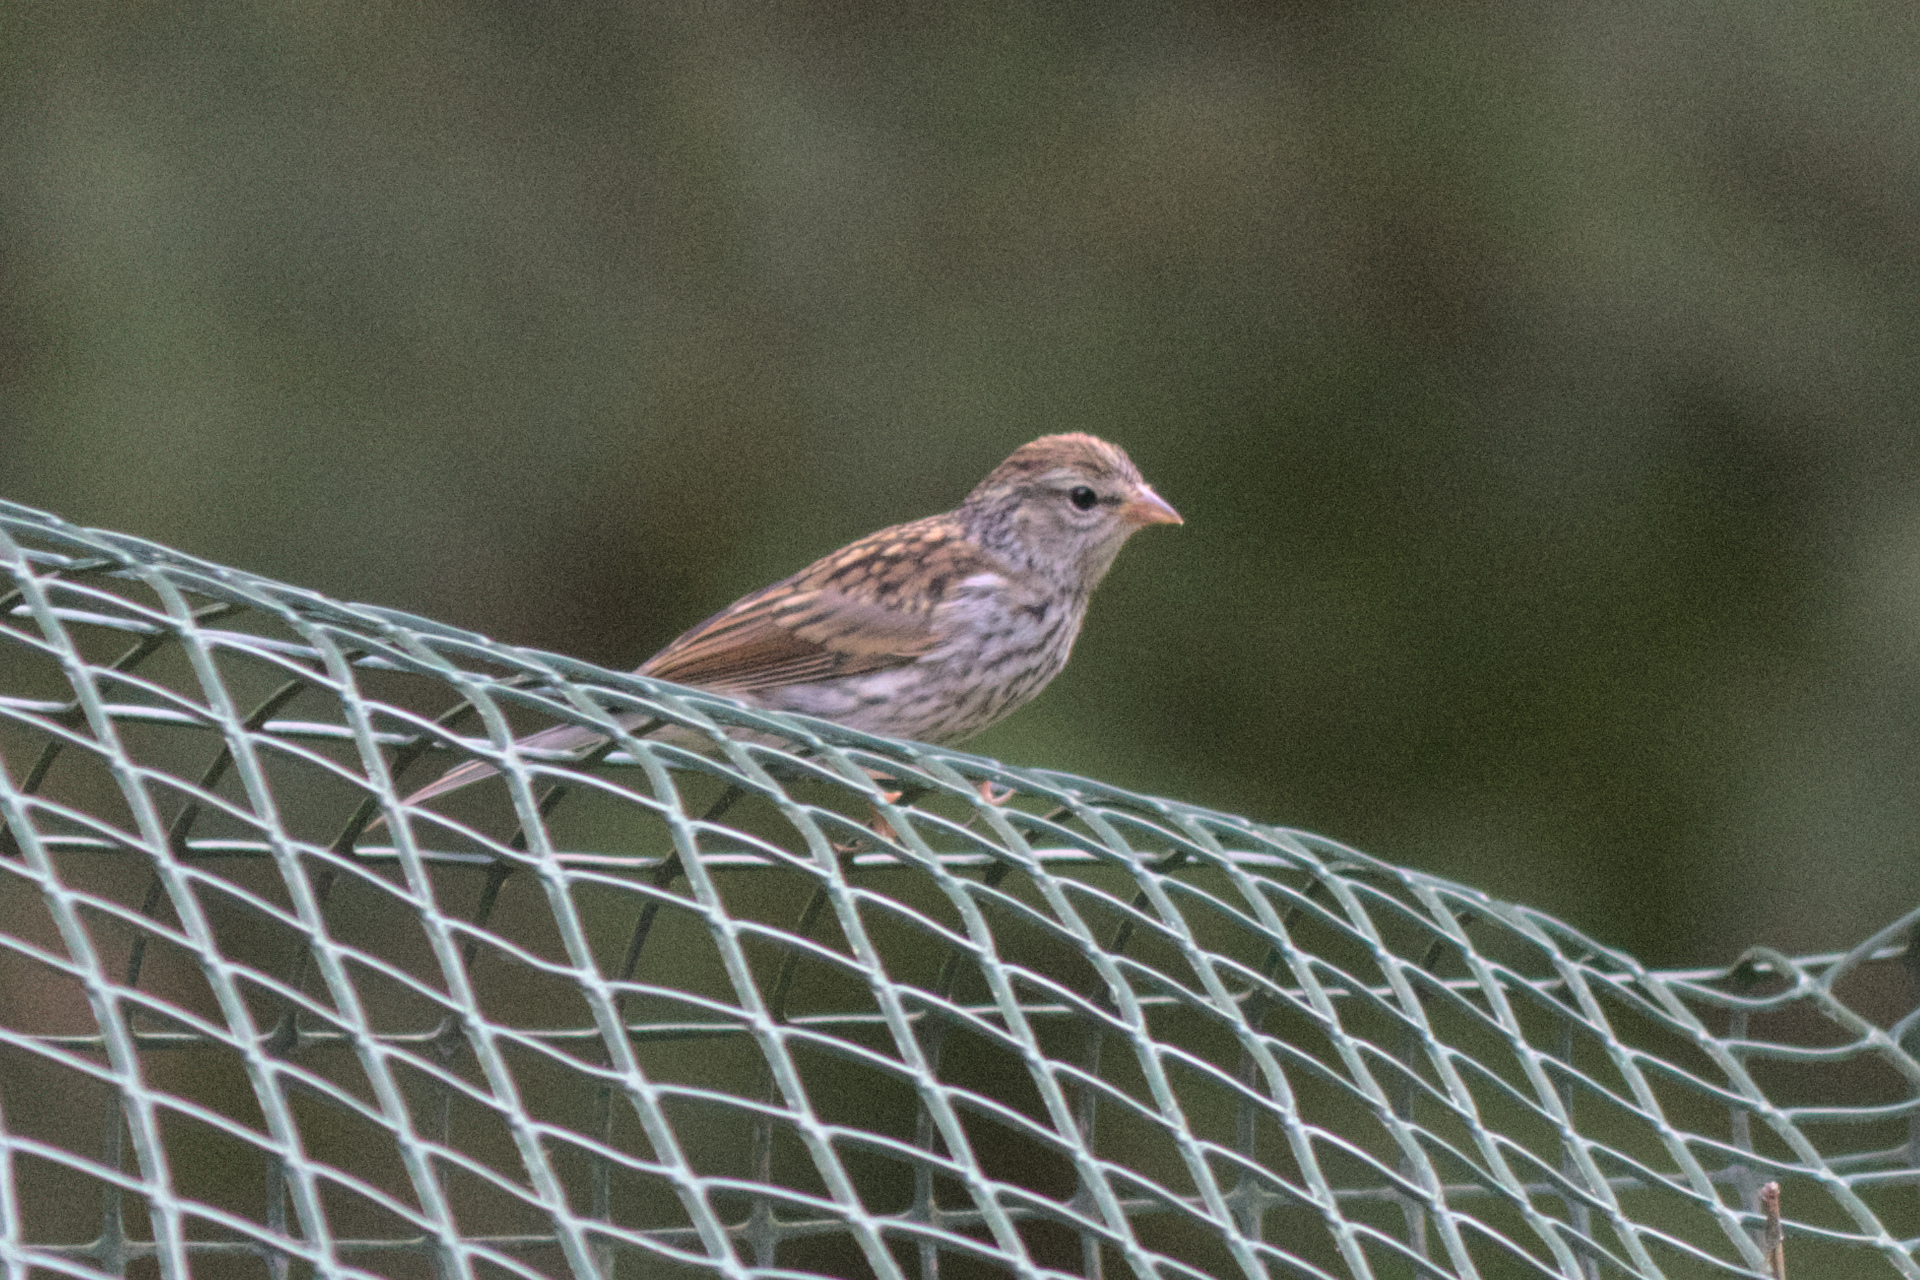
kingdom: Animalia
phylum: Chordata
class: Aves
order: Passeriformes
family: Passerellidae
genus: Spizella
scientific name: Spizella passerina
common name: Chipping sparrow
